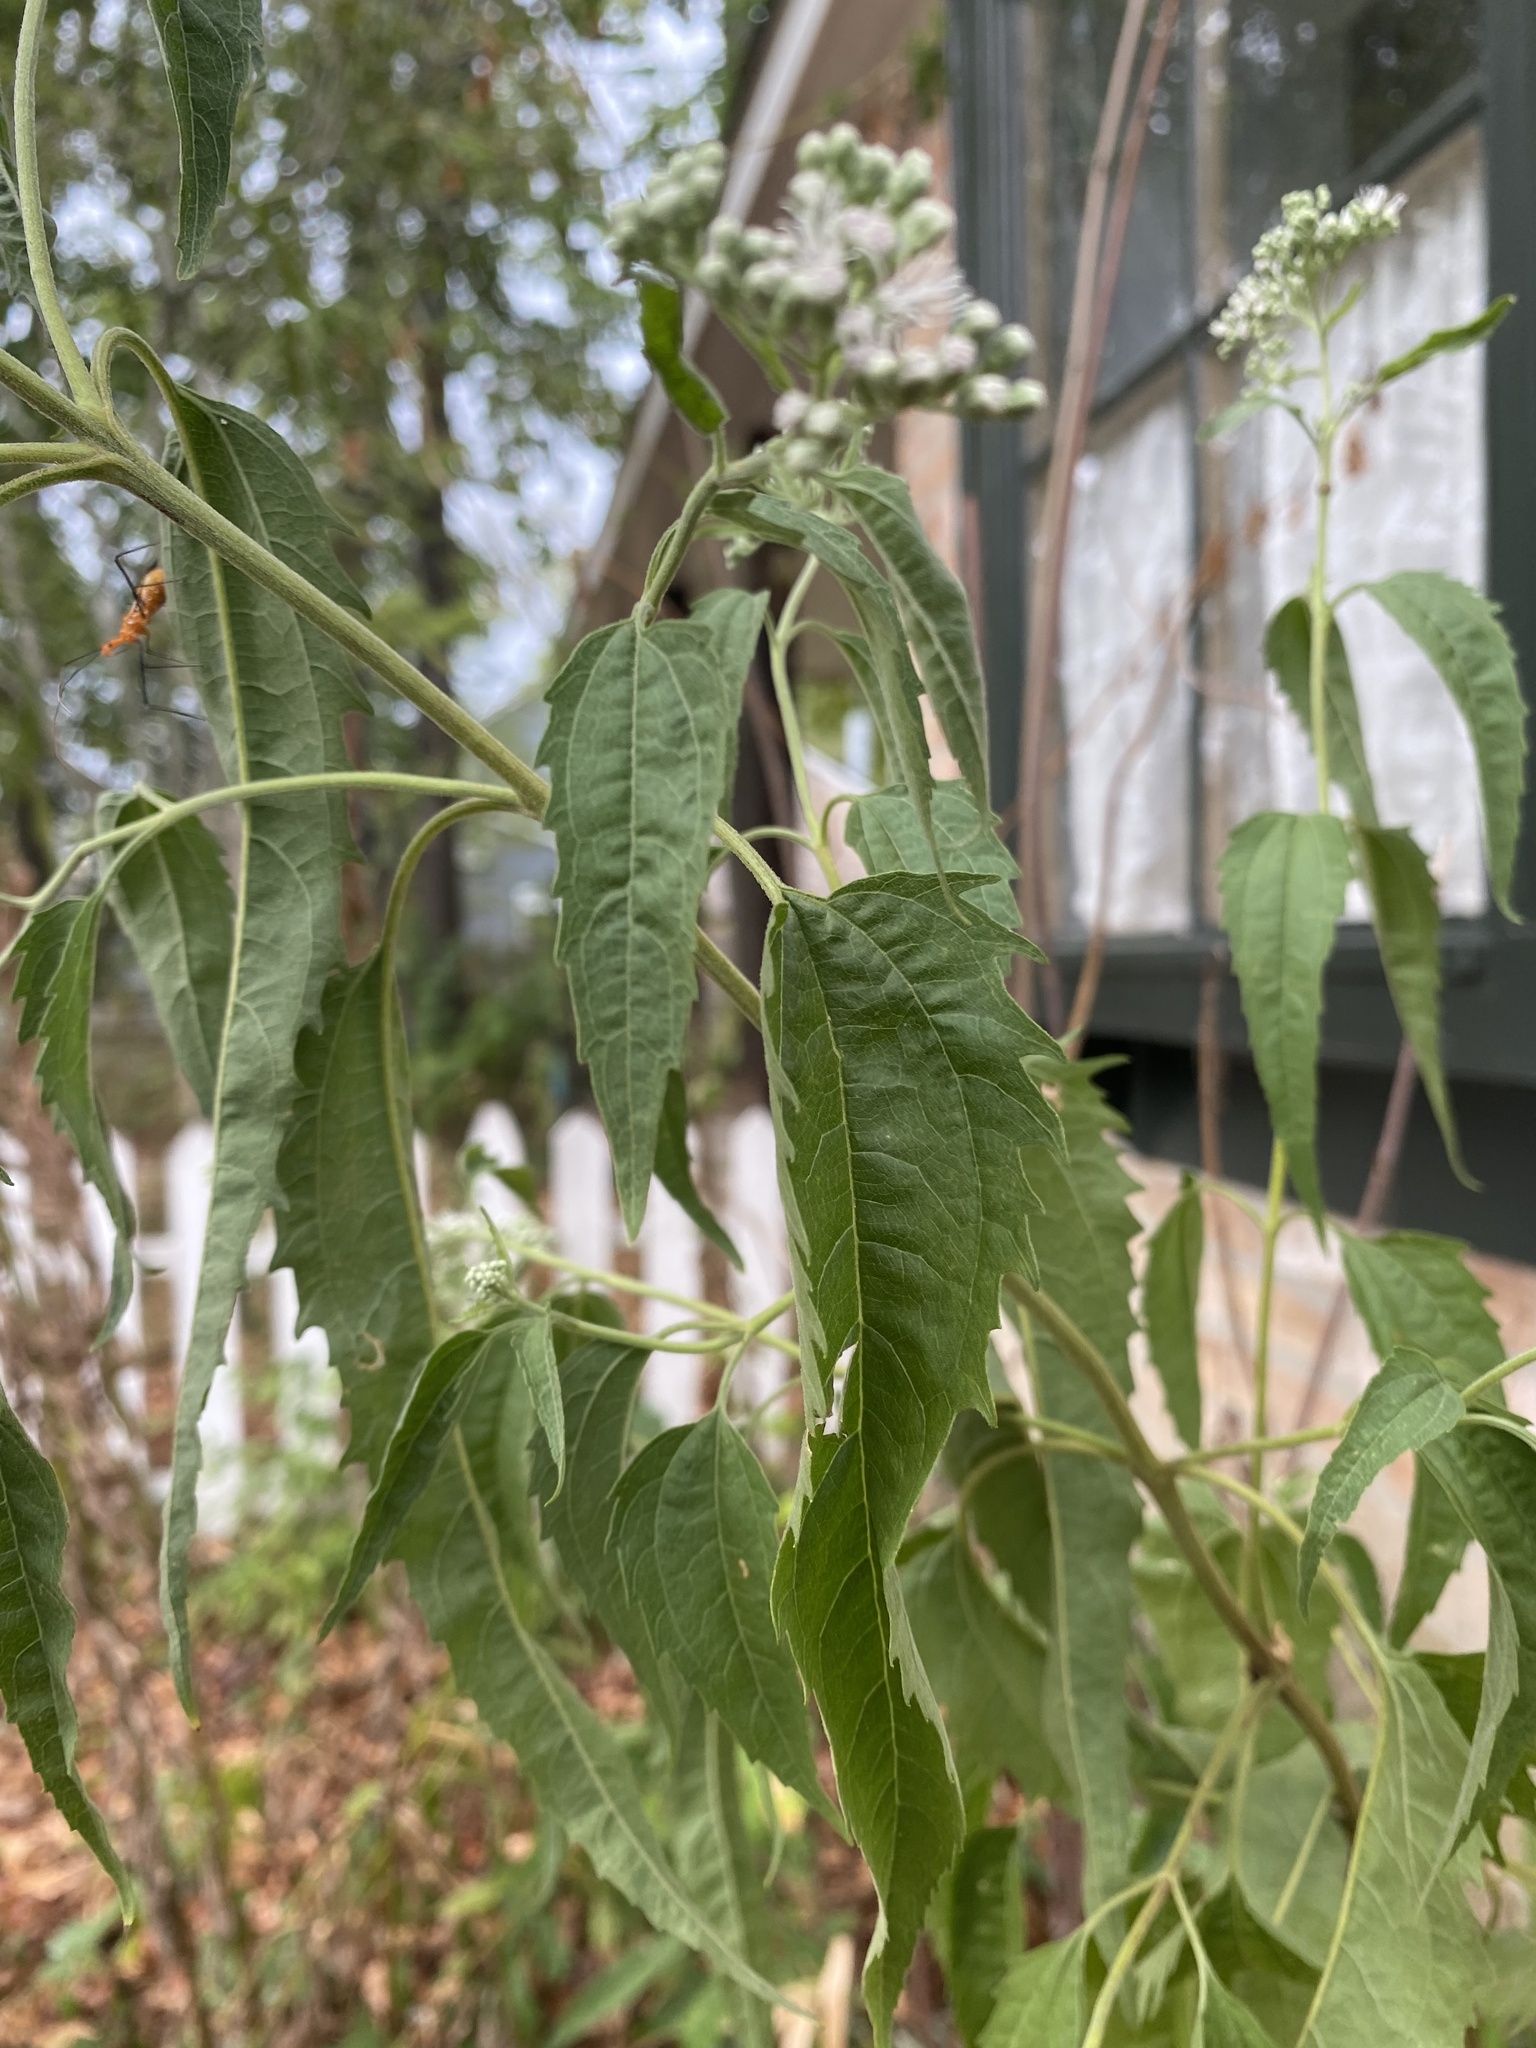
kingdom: Plantae
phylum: Tracheophyta
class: Magnoliopsida
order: Asterales
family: Asteraceae
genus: Eupatorium
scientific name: Eupatorium serotinum
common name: Late boneset
